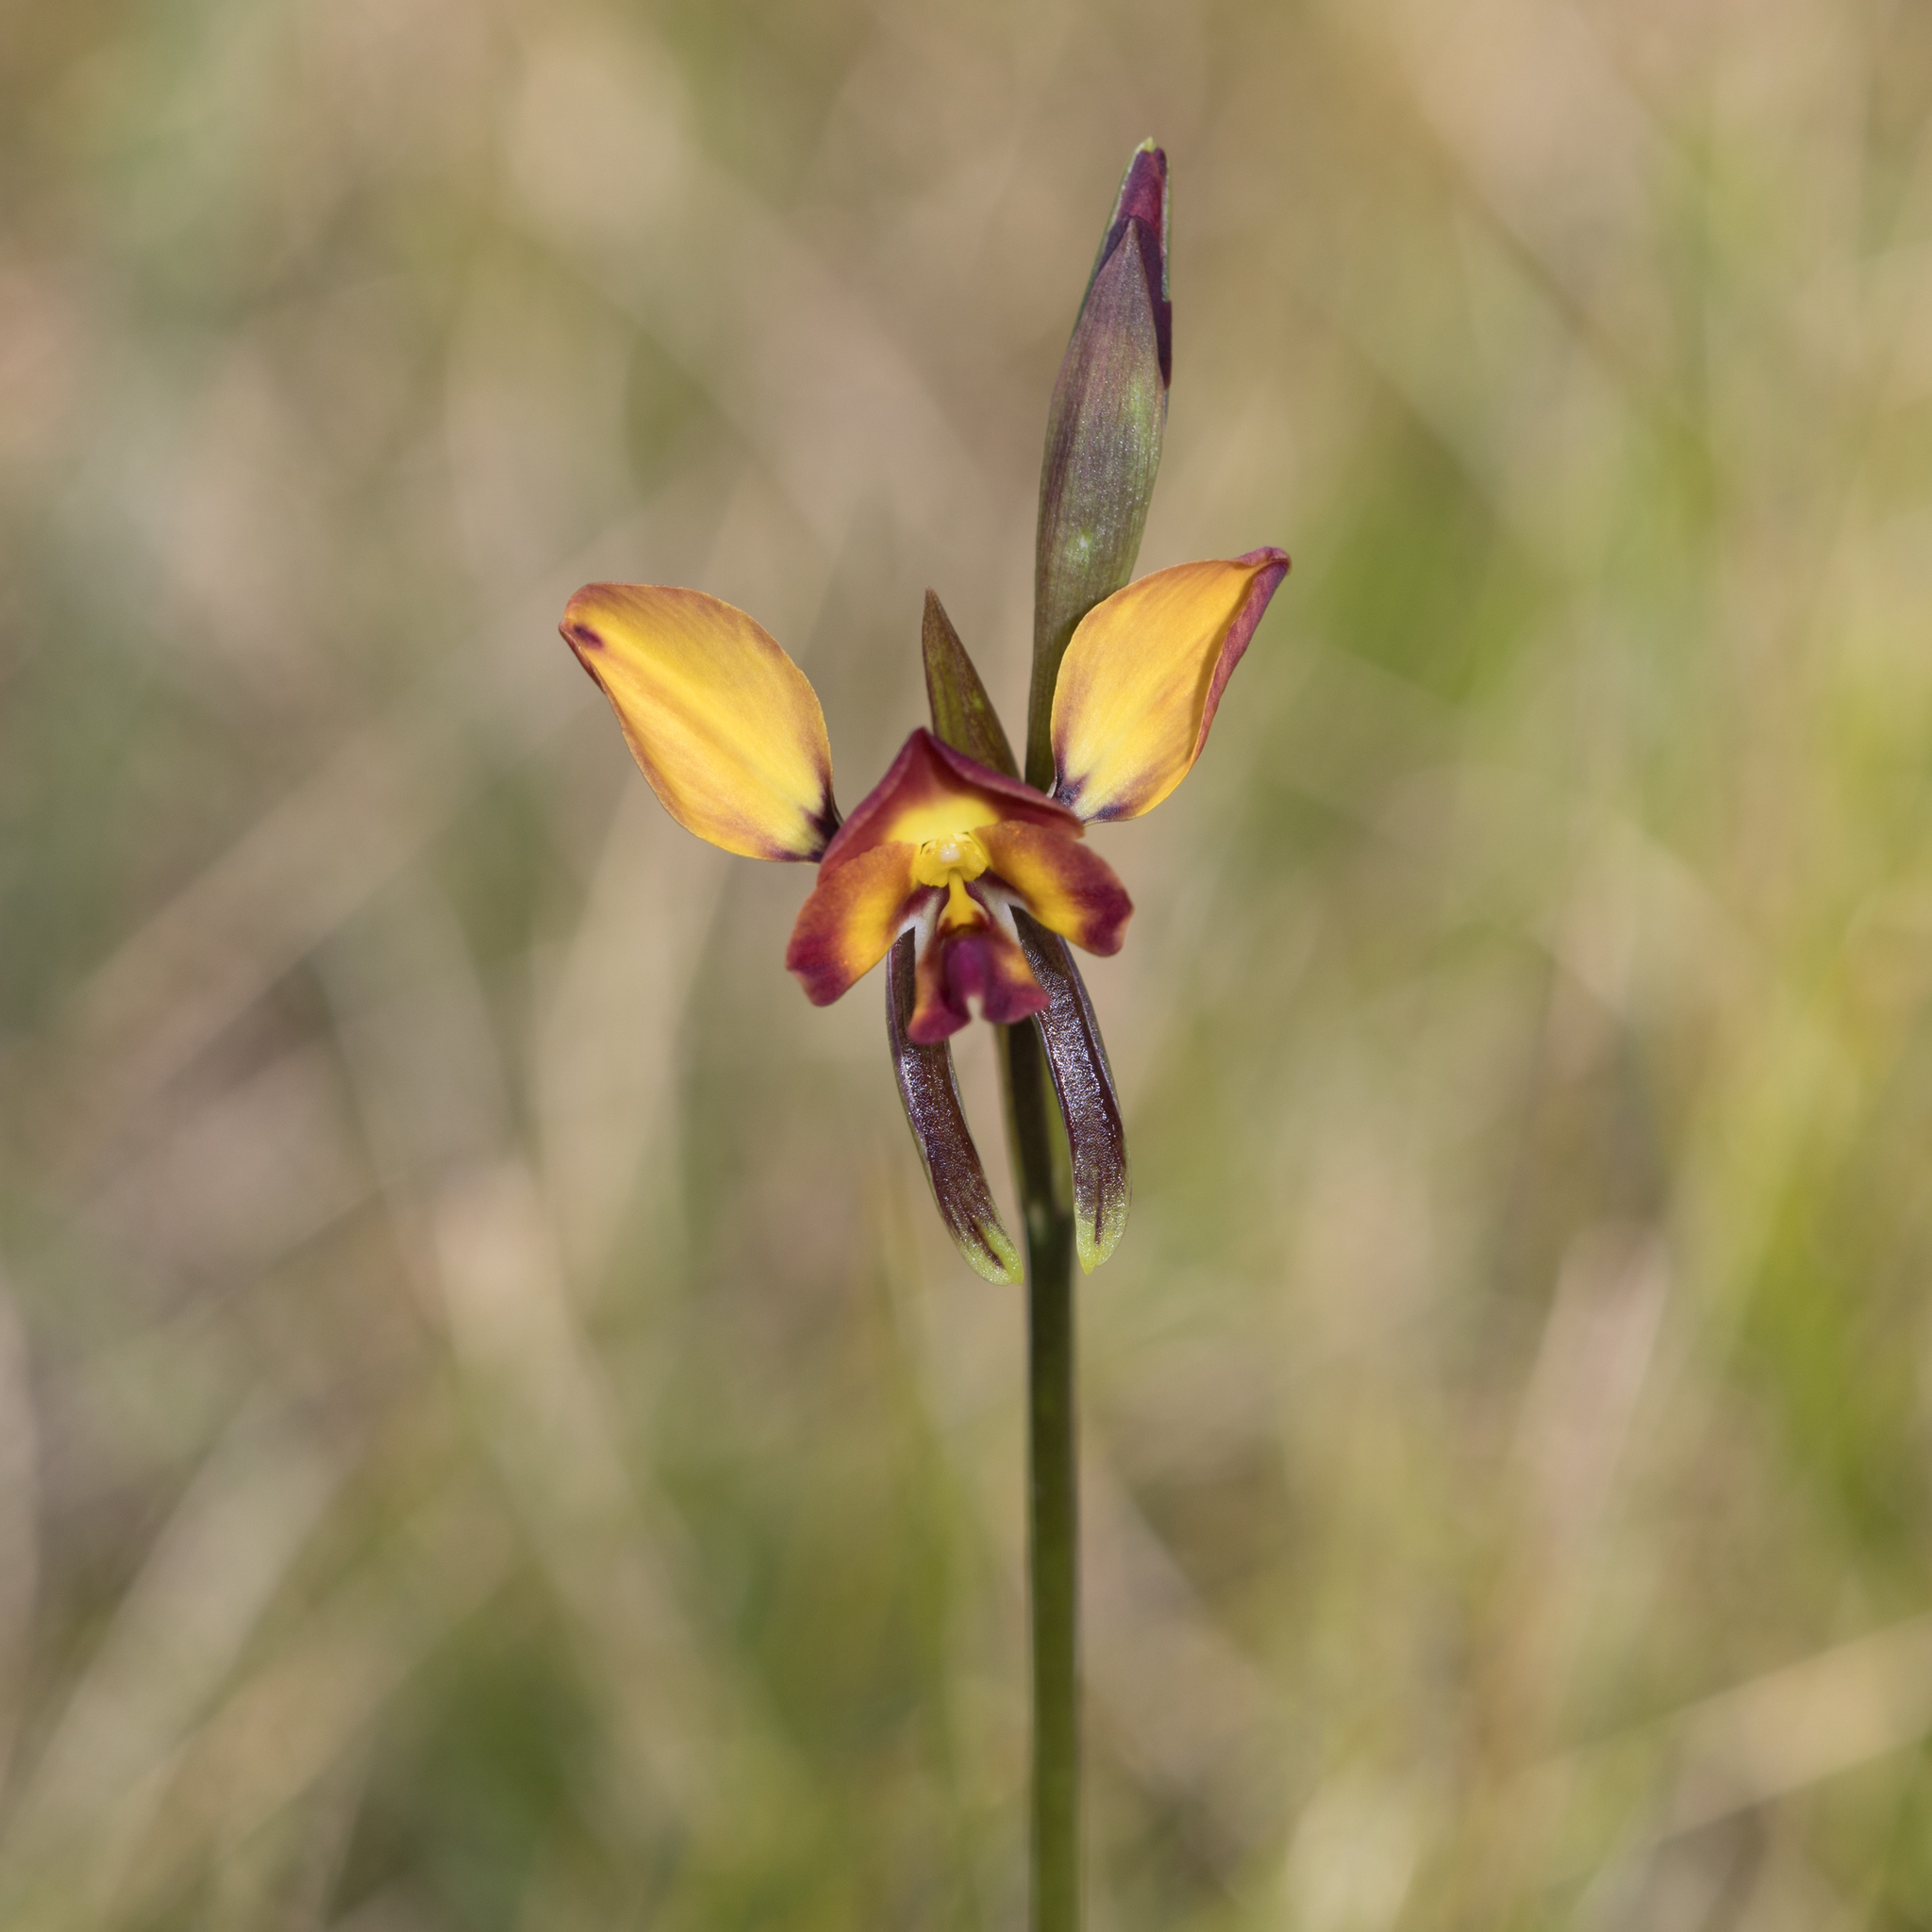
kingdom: Plantae
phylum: Tracheophyta
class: Liliopsida
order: Asparagales
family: Orchidaceae
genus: Diuris
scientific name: Diuris orientis
